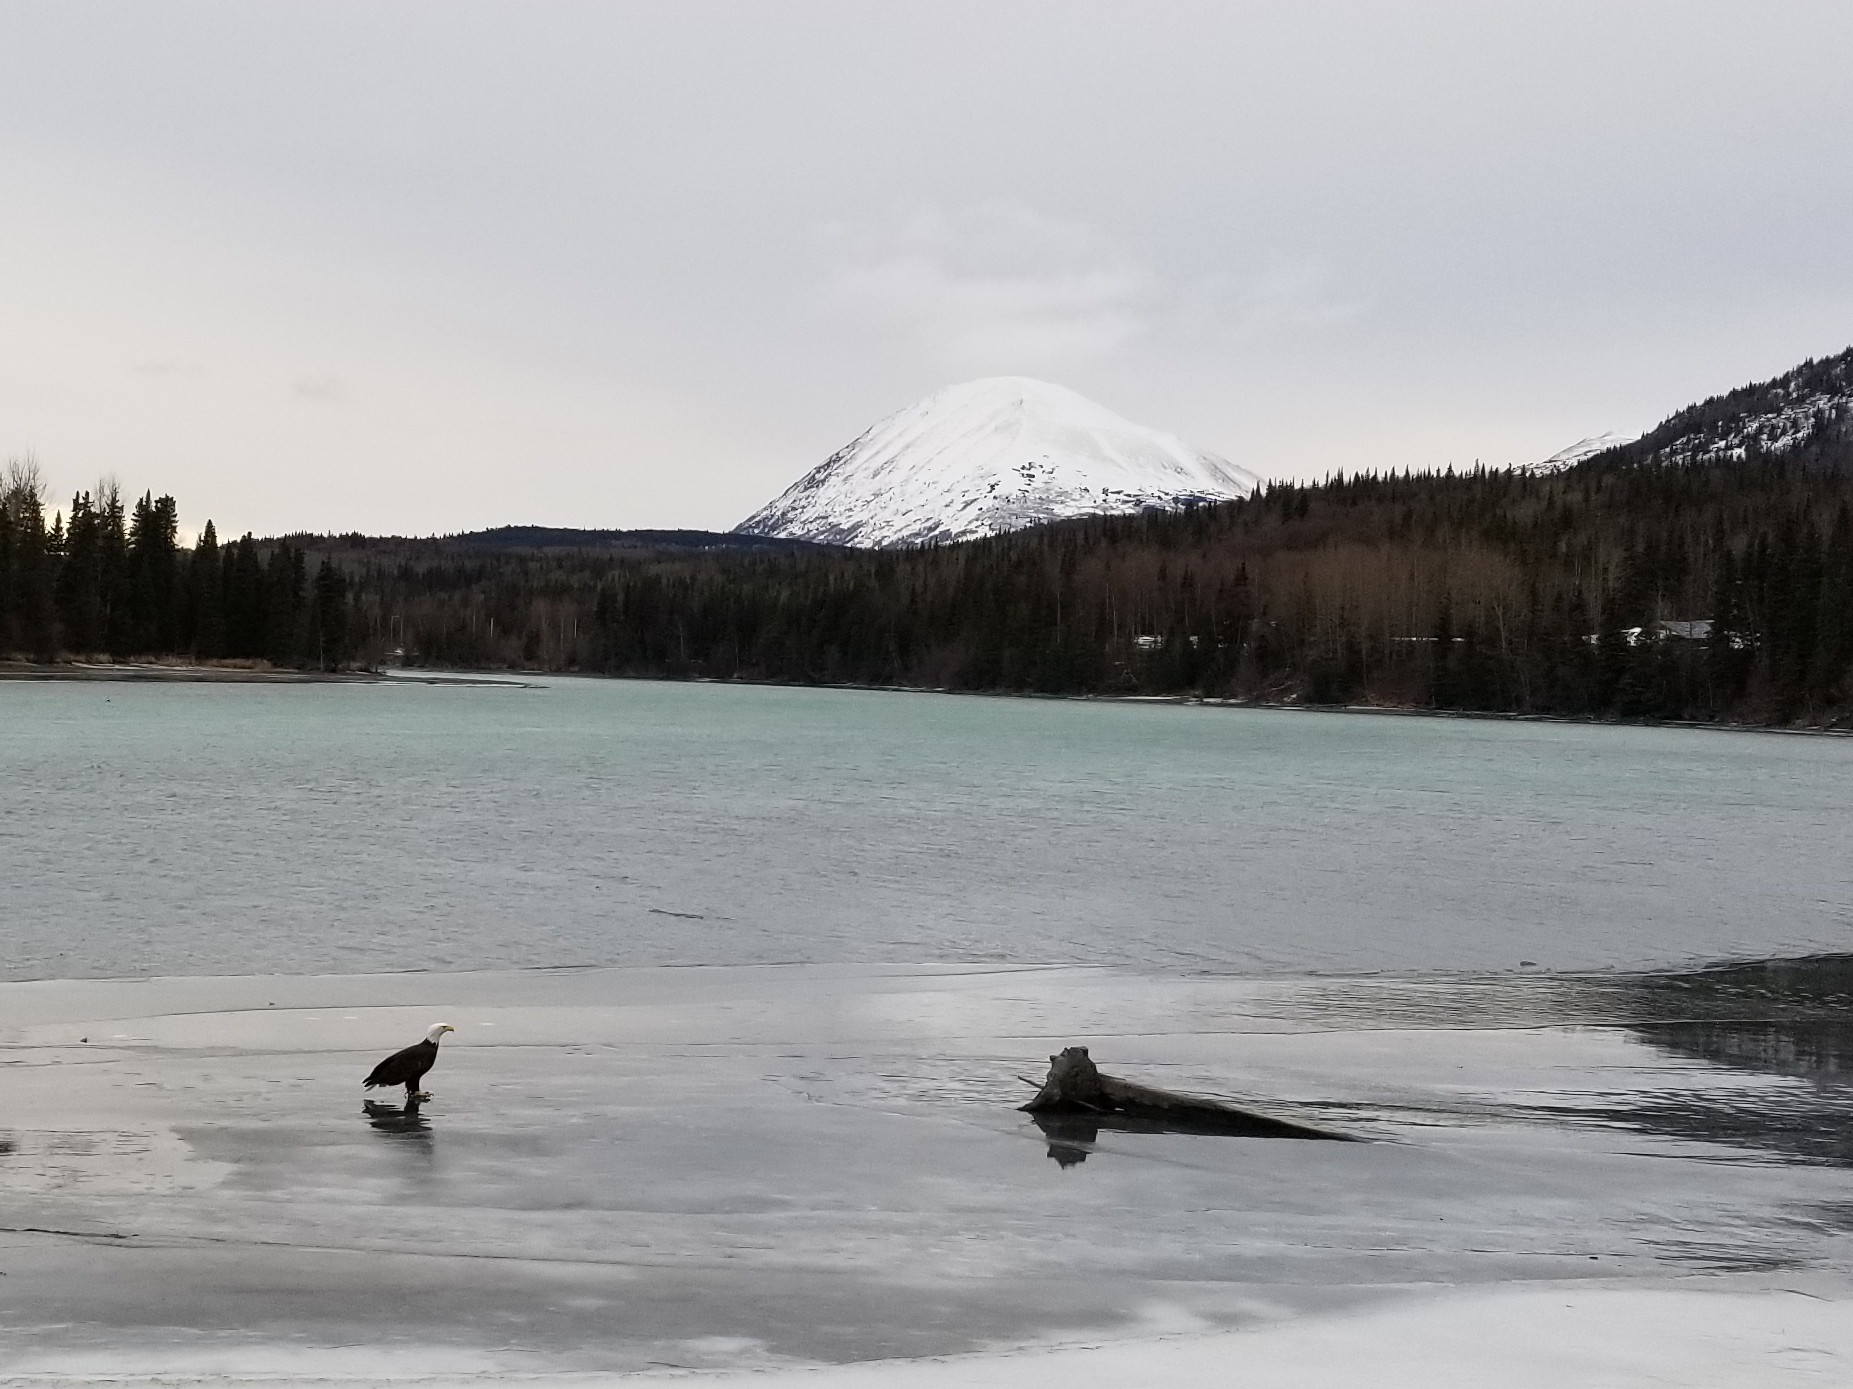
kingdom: Animalia
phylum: Chordata
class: Aves
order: Accipitriformes
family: Accipitridae
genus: Haliaeetus
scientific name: Haliaeetus leucocephalus
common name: Bald eagle
